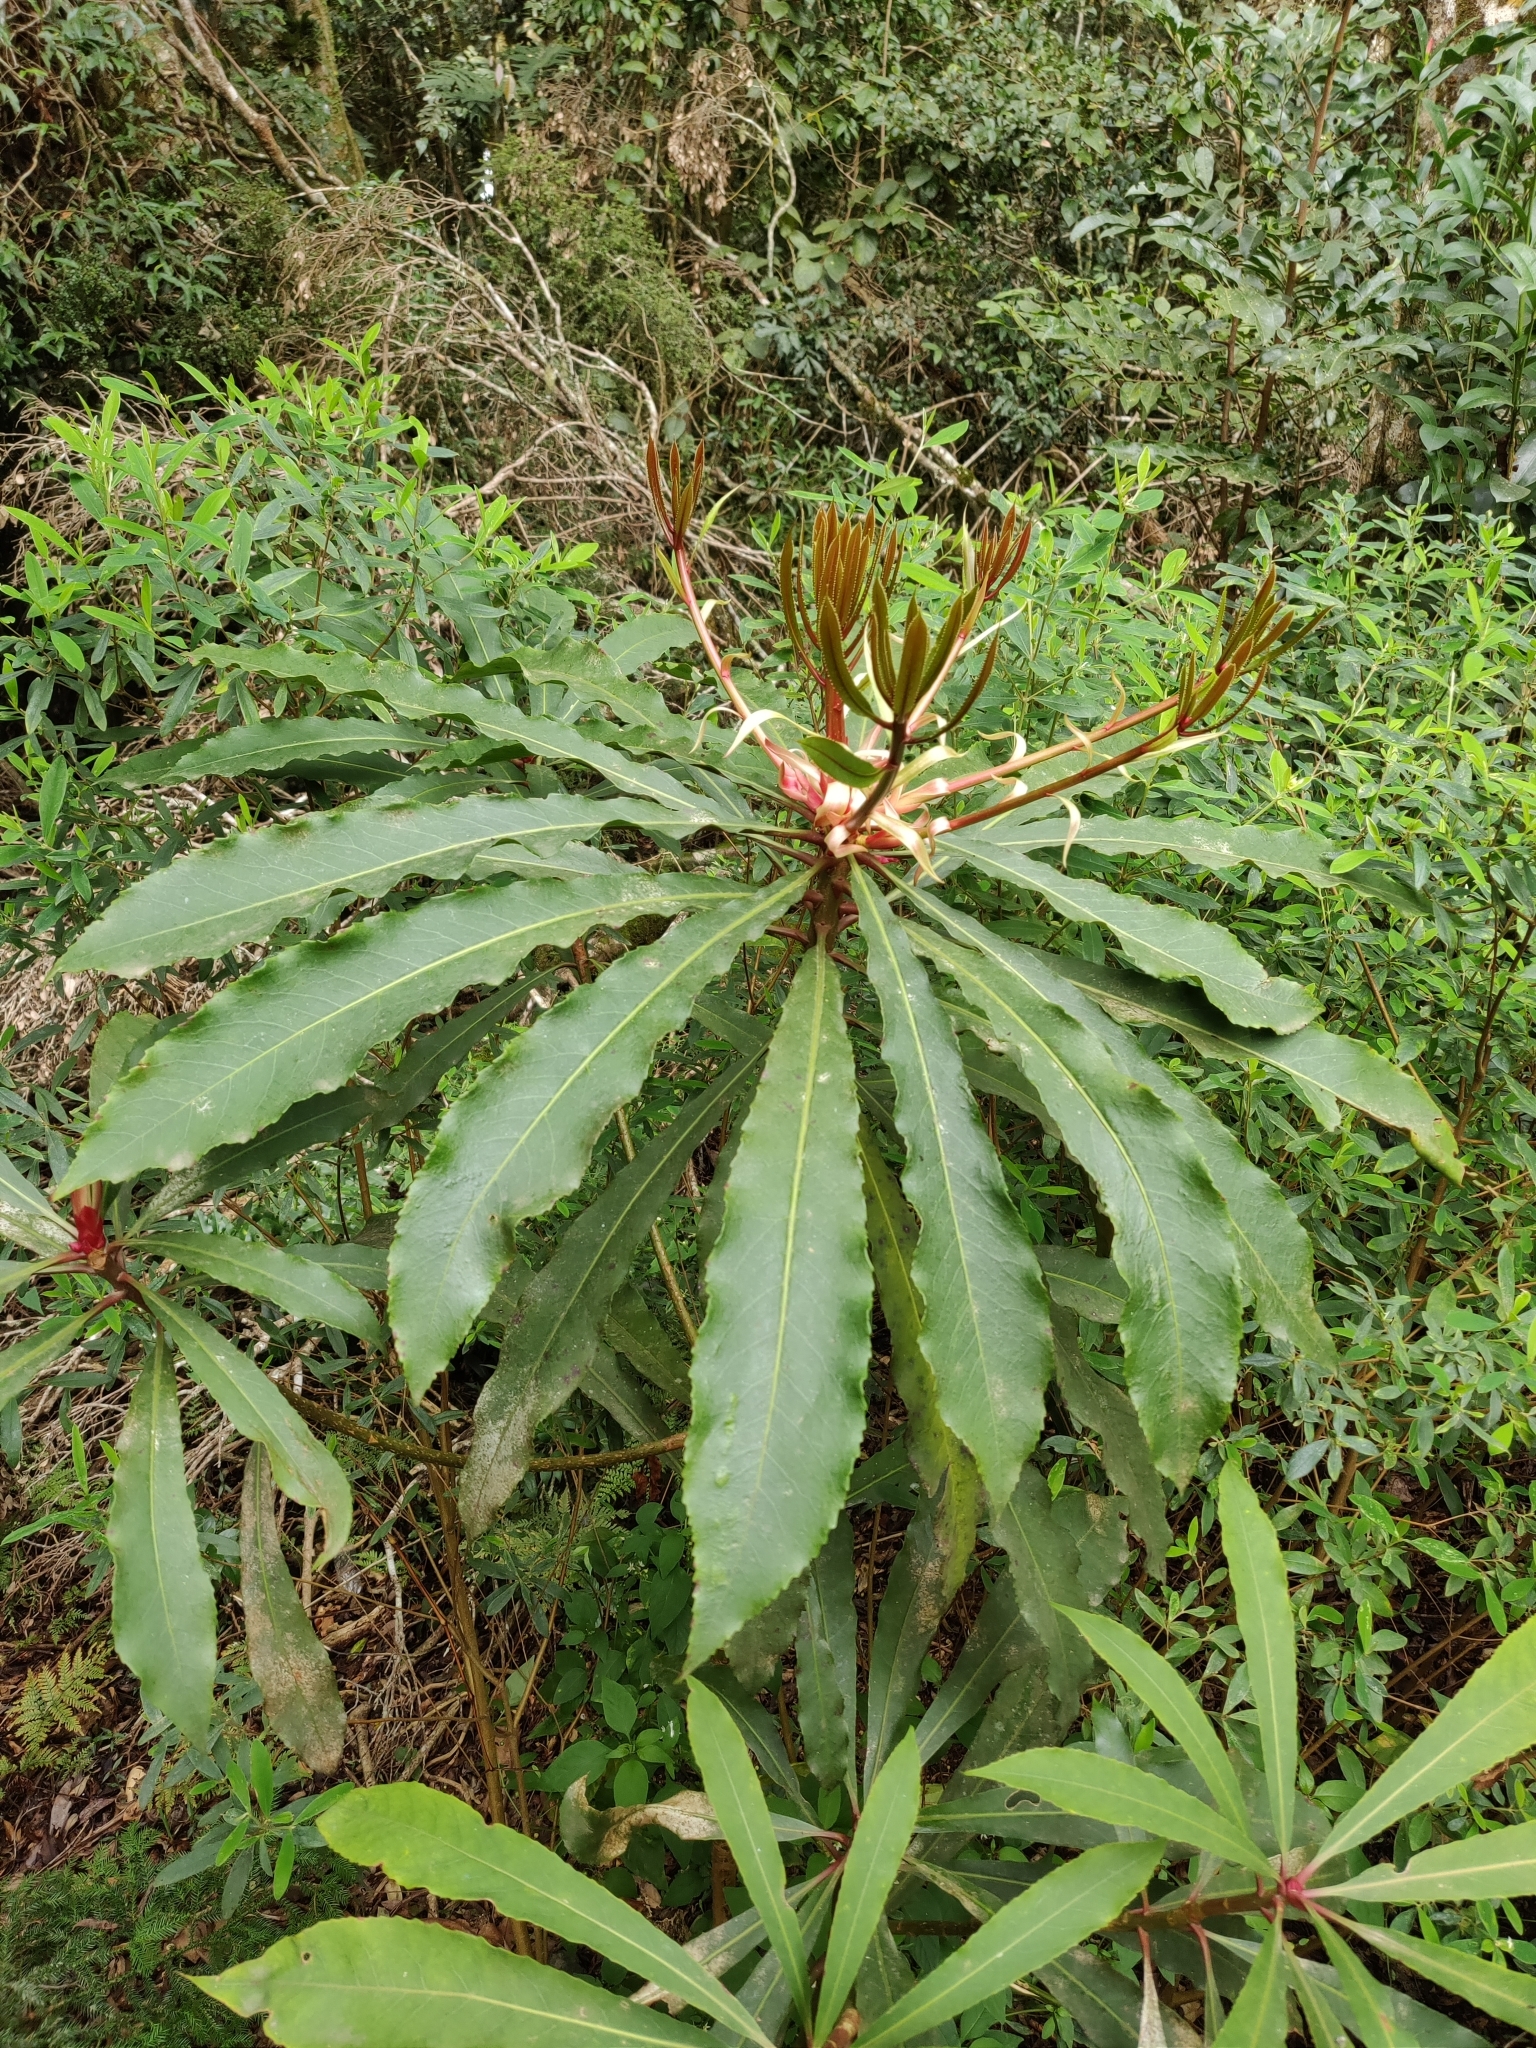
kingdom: Plantae
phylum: Tracheophyta
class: Magnoliopsida
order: Escalloniales
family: Escalloniaceae
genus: Anopterus
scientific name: Anopterus macleayanus
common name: Tasmanian-laurel
